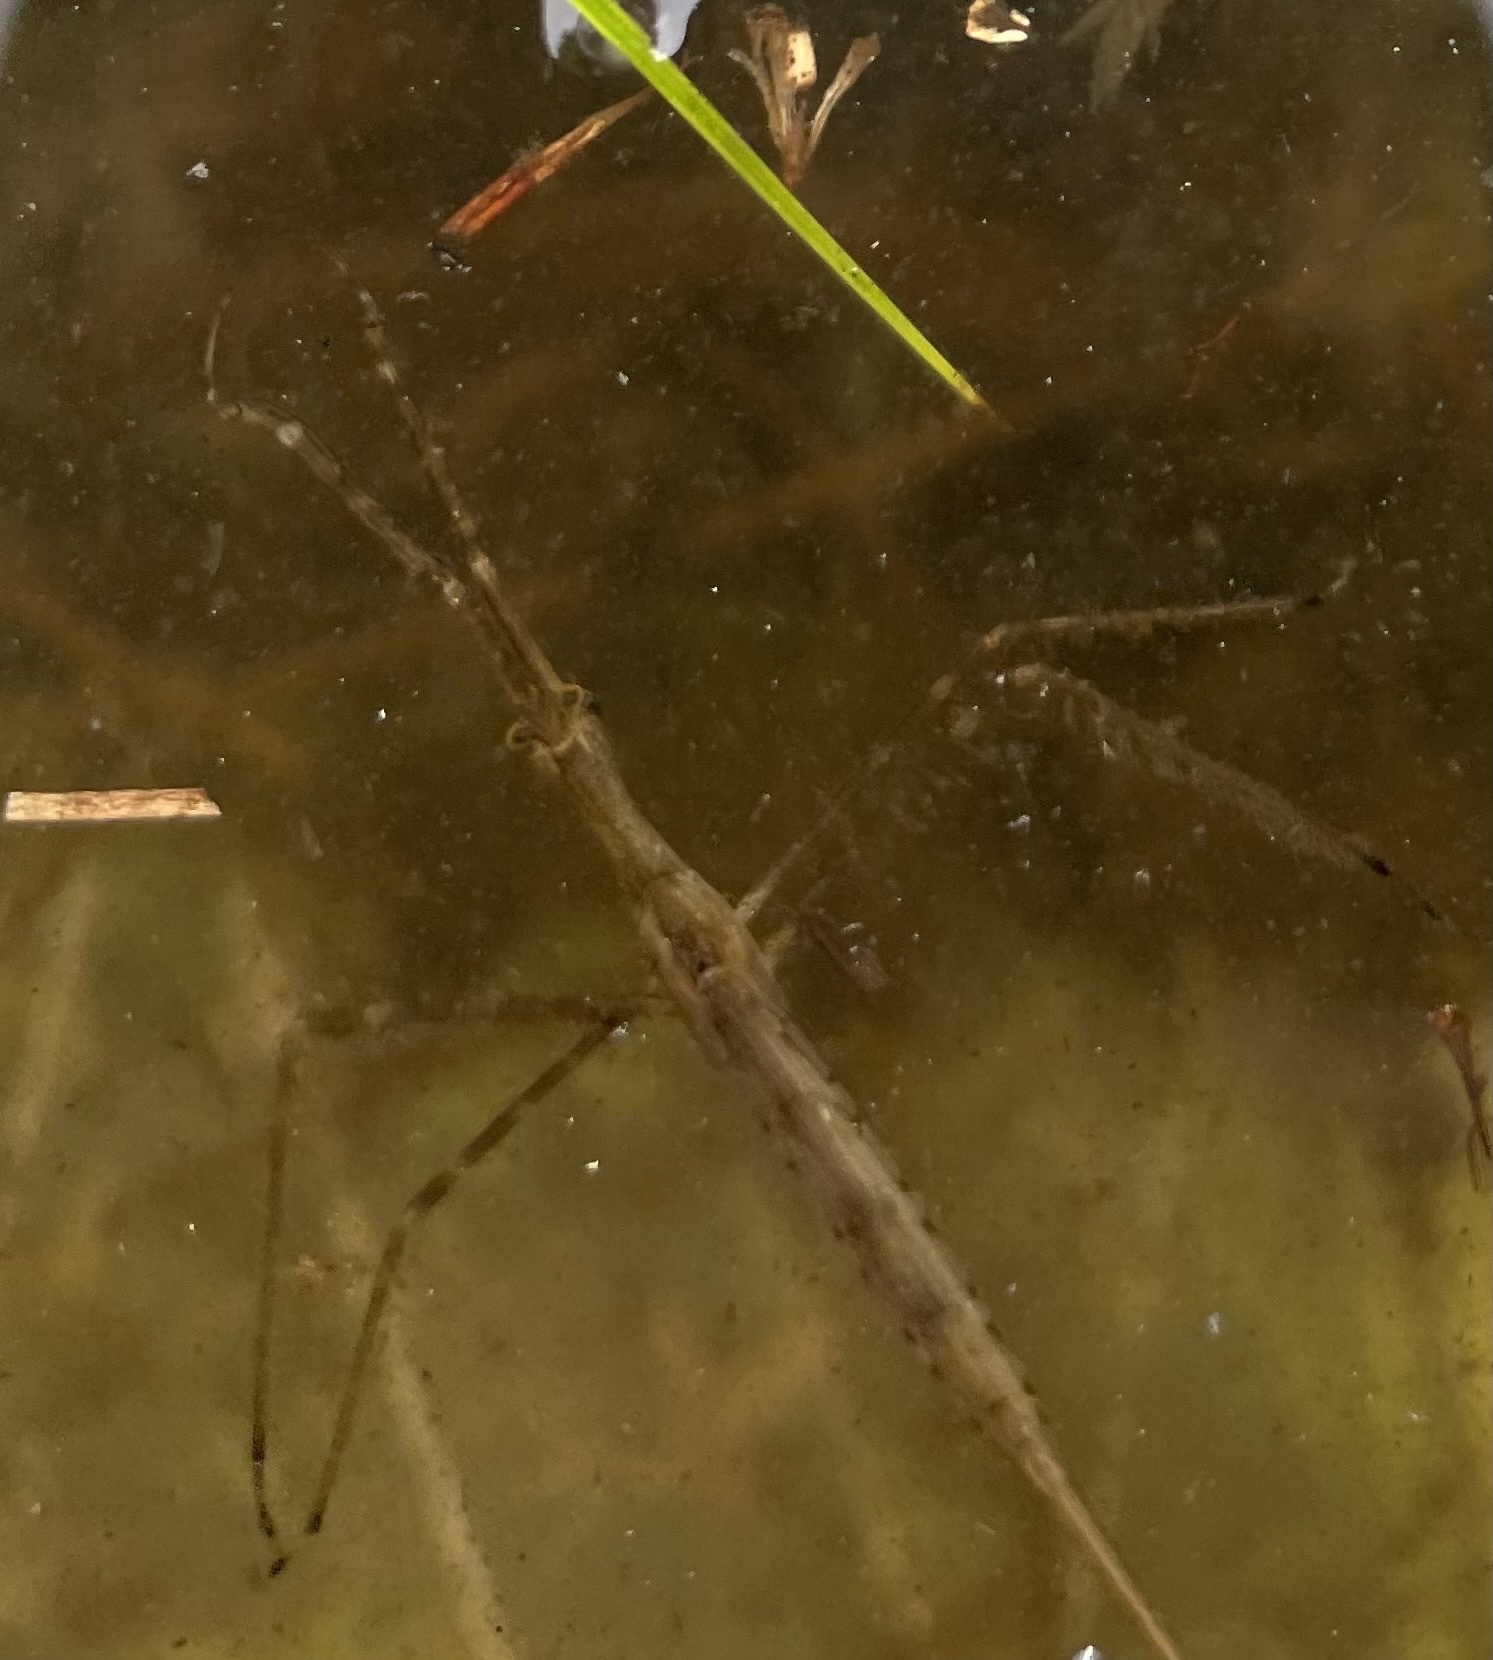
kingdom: Animalia
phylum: Arthropoda
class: Insecta
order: Hemiptera
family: Nepidae
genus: Ranatra
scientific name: Ranatra
